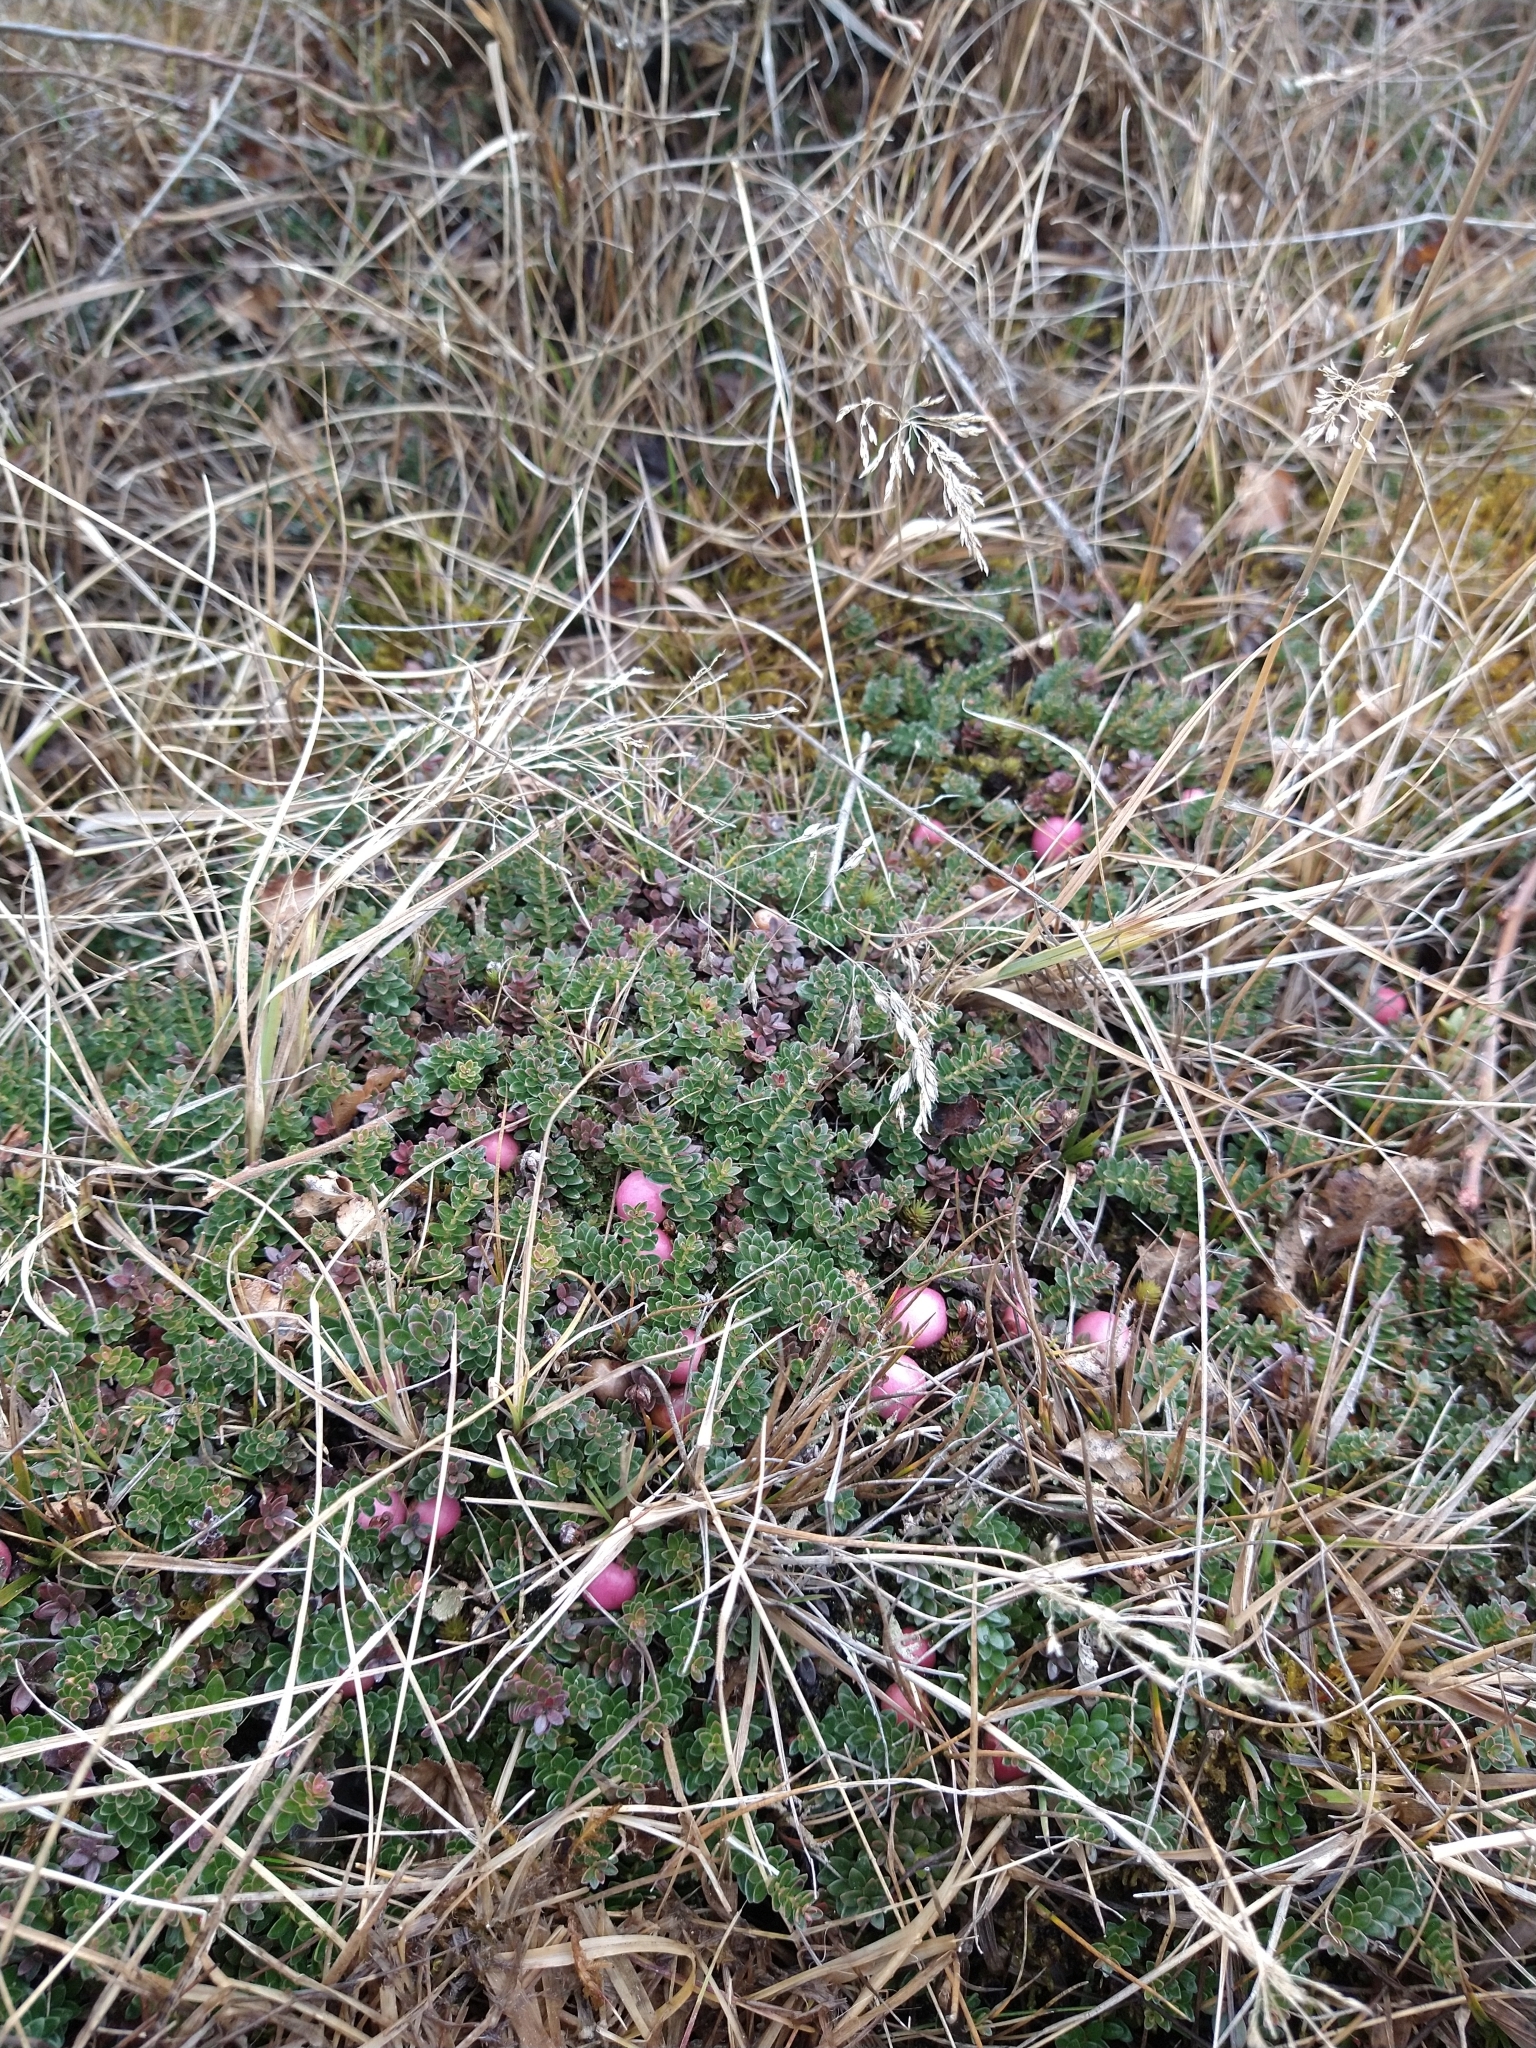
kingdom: Plantae
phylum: Tracheophyta
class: Magnoliopsida
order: Ericales
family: Ericaceae
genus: Gaultheria
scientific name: Gaultheria pumila
